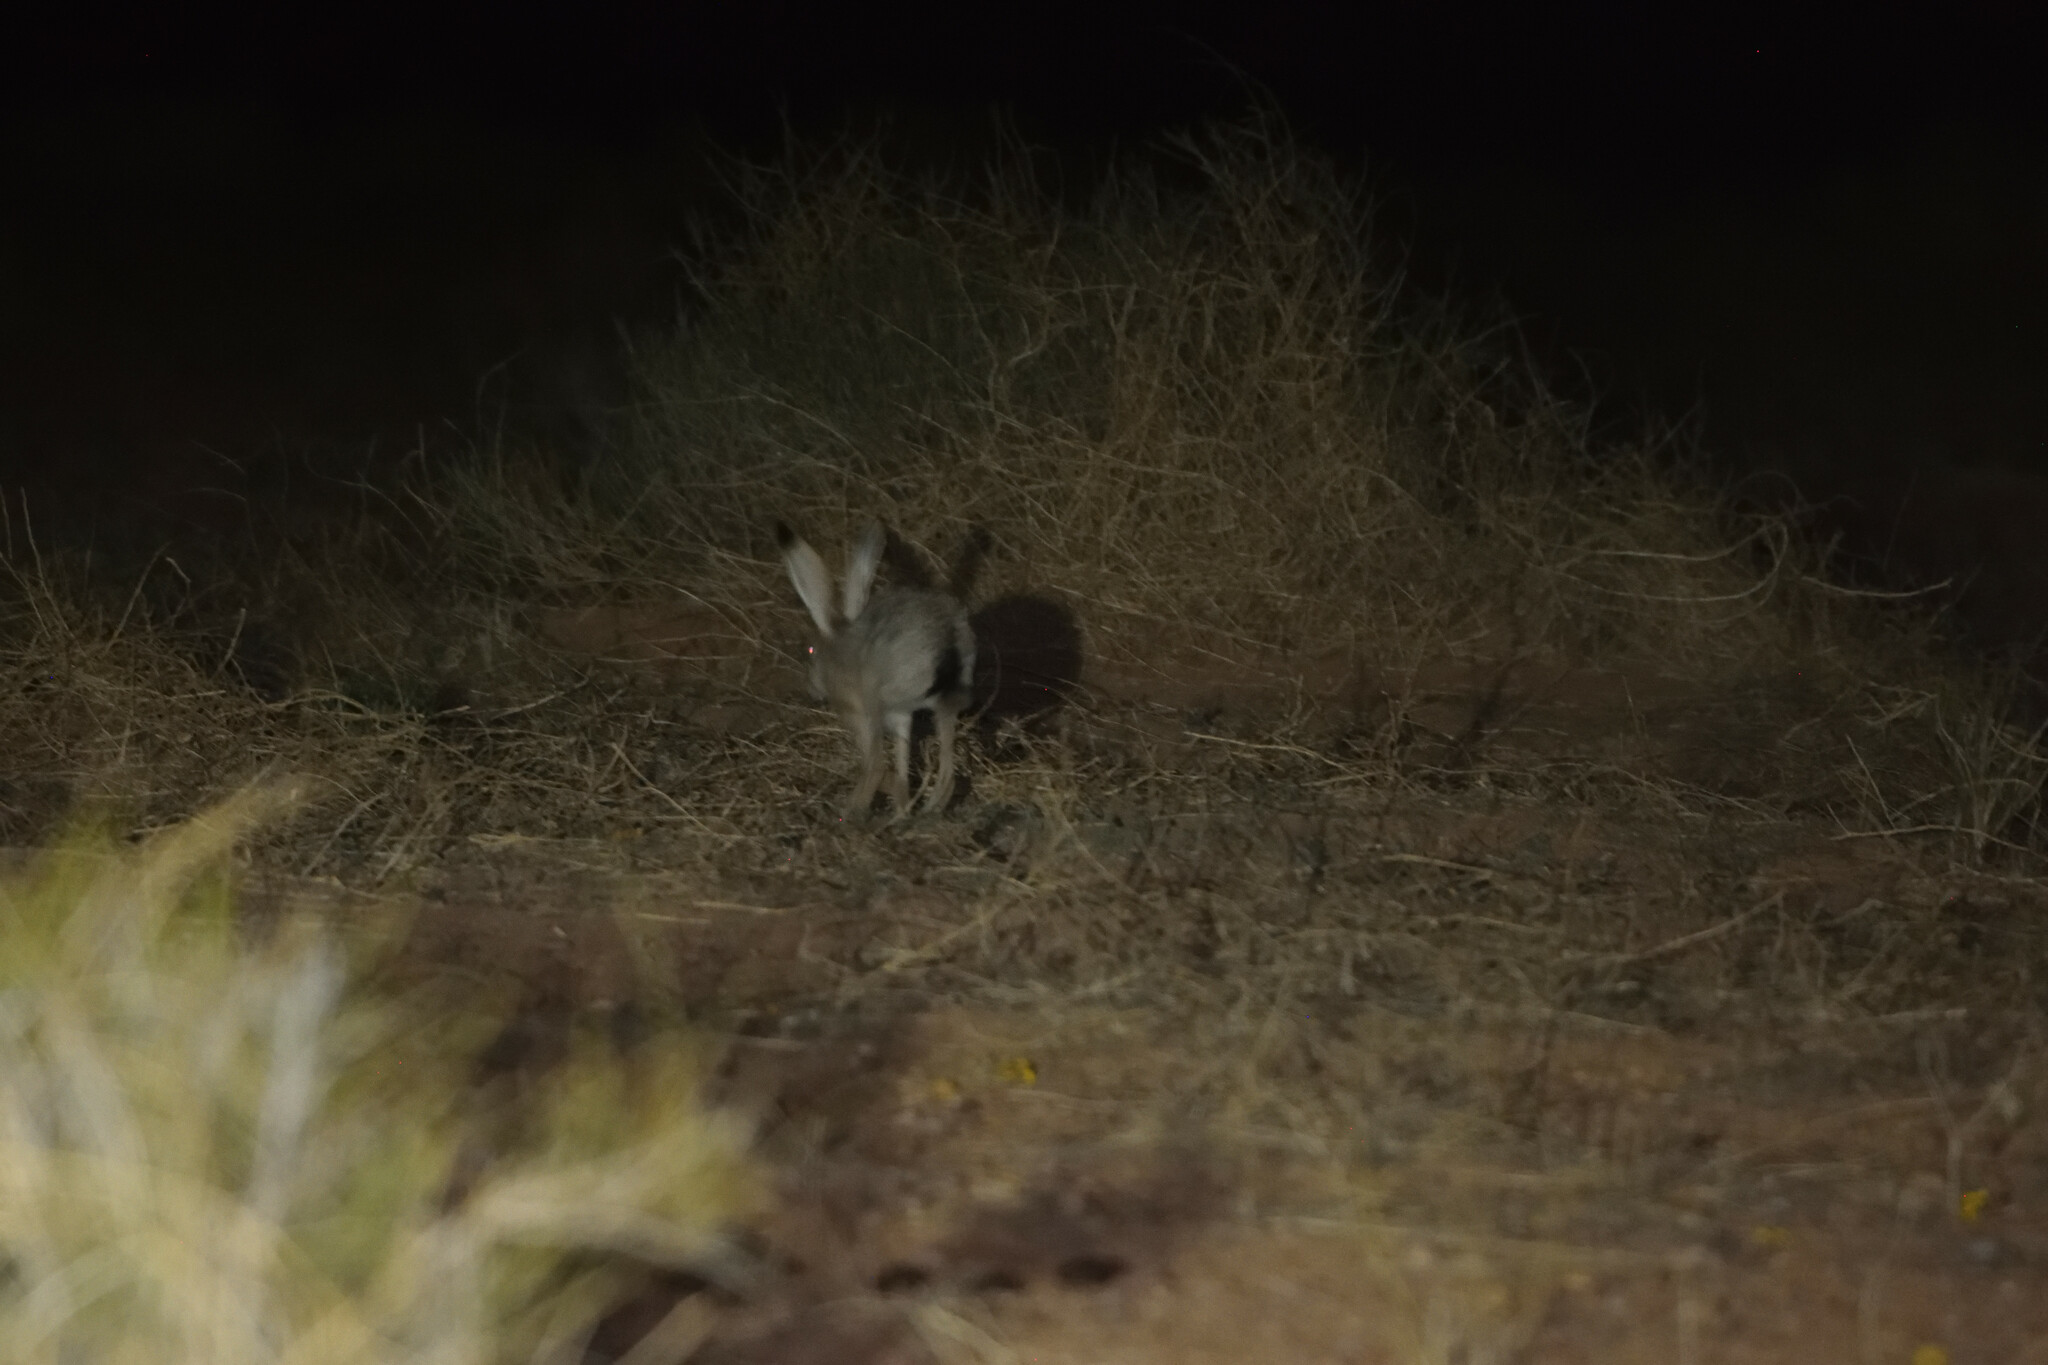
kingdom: Animalia
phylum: Chordata
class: Mammalia
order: Lagomorpha
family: Leporidae
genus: Lepus
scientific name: Lepus californicus
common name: Black-tailed jackrabbit
